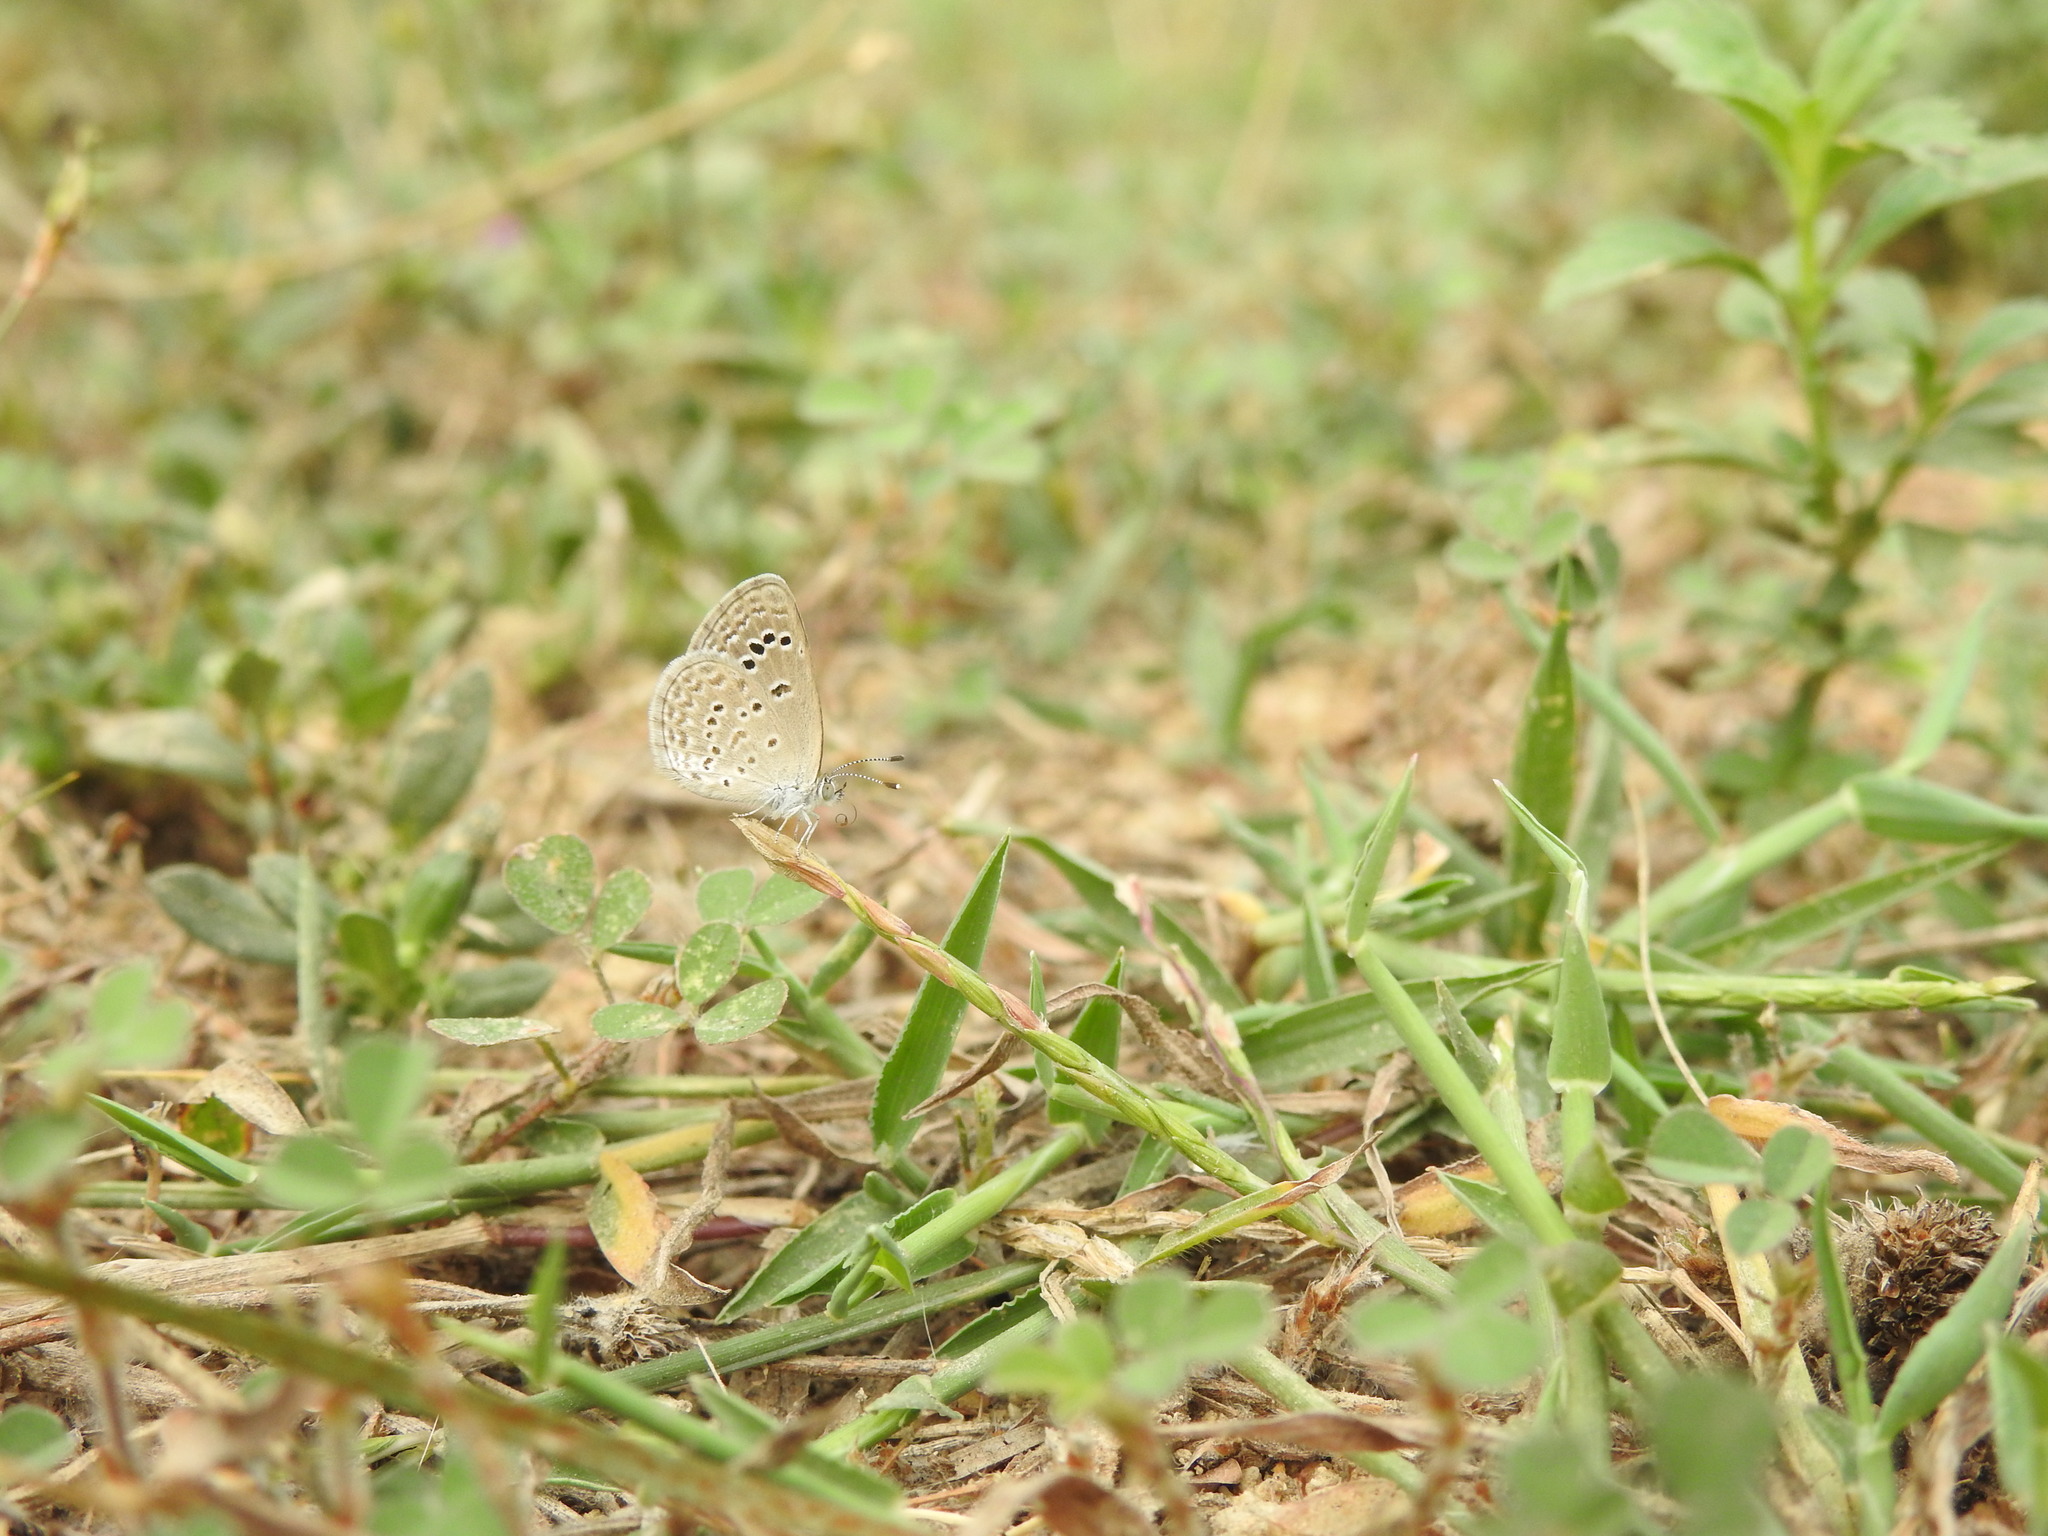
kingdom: Animalia
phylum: Arthropoda
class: Insecta
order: Lepidoptera
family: Lycaenidae
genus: Zizina
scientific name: Zizina otis
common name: Lesser grass blue
